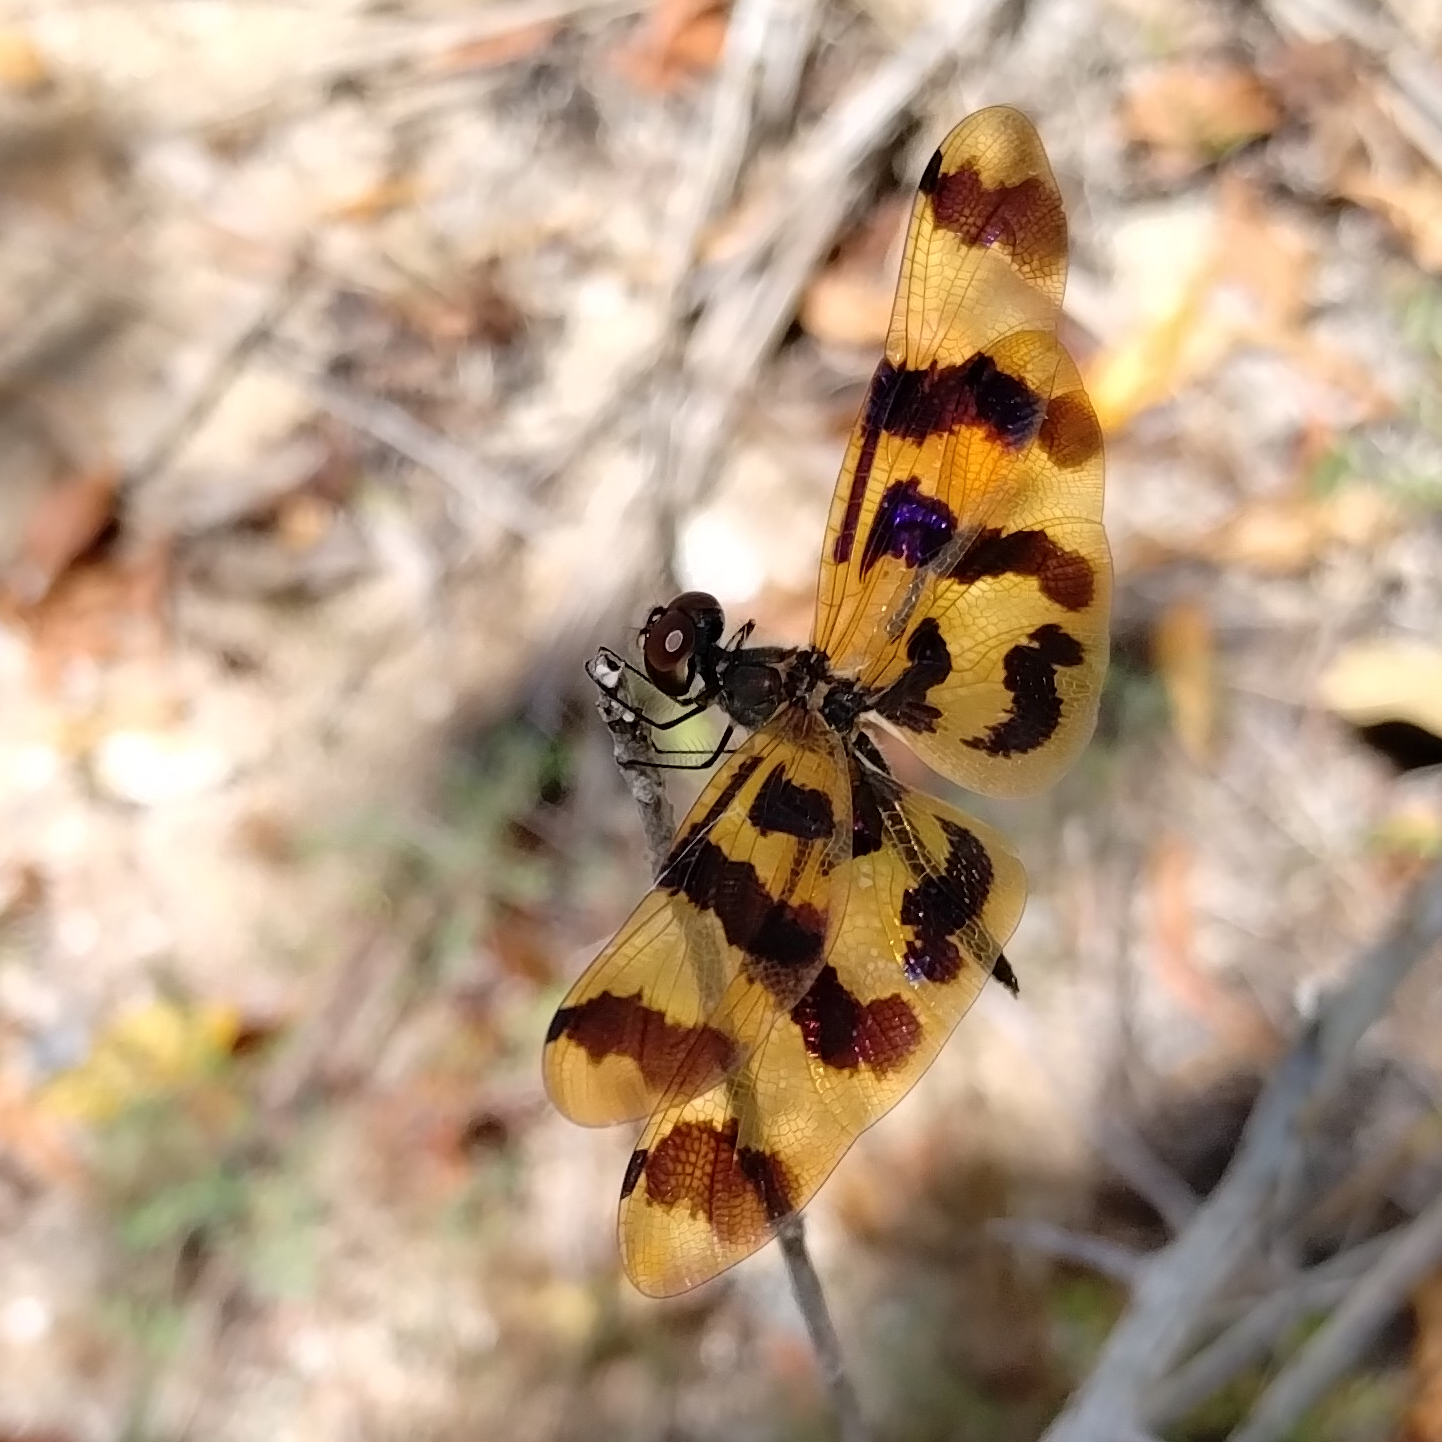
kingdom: Animalia
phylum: Arthropoda
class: Insecta
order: Odonata
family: Libellulidae
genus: Rhyothemis
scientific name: Rhyothemis graphiptera
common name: Graphic flutterer
